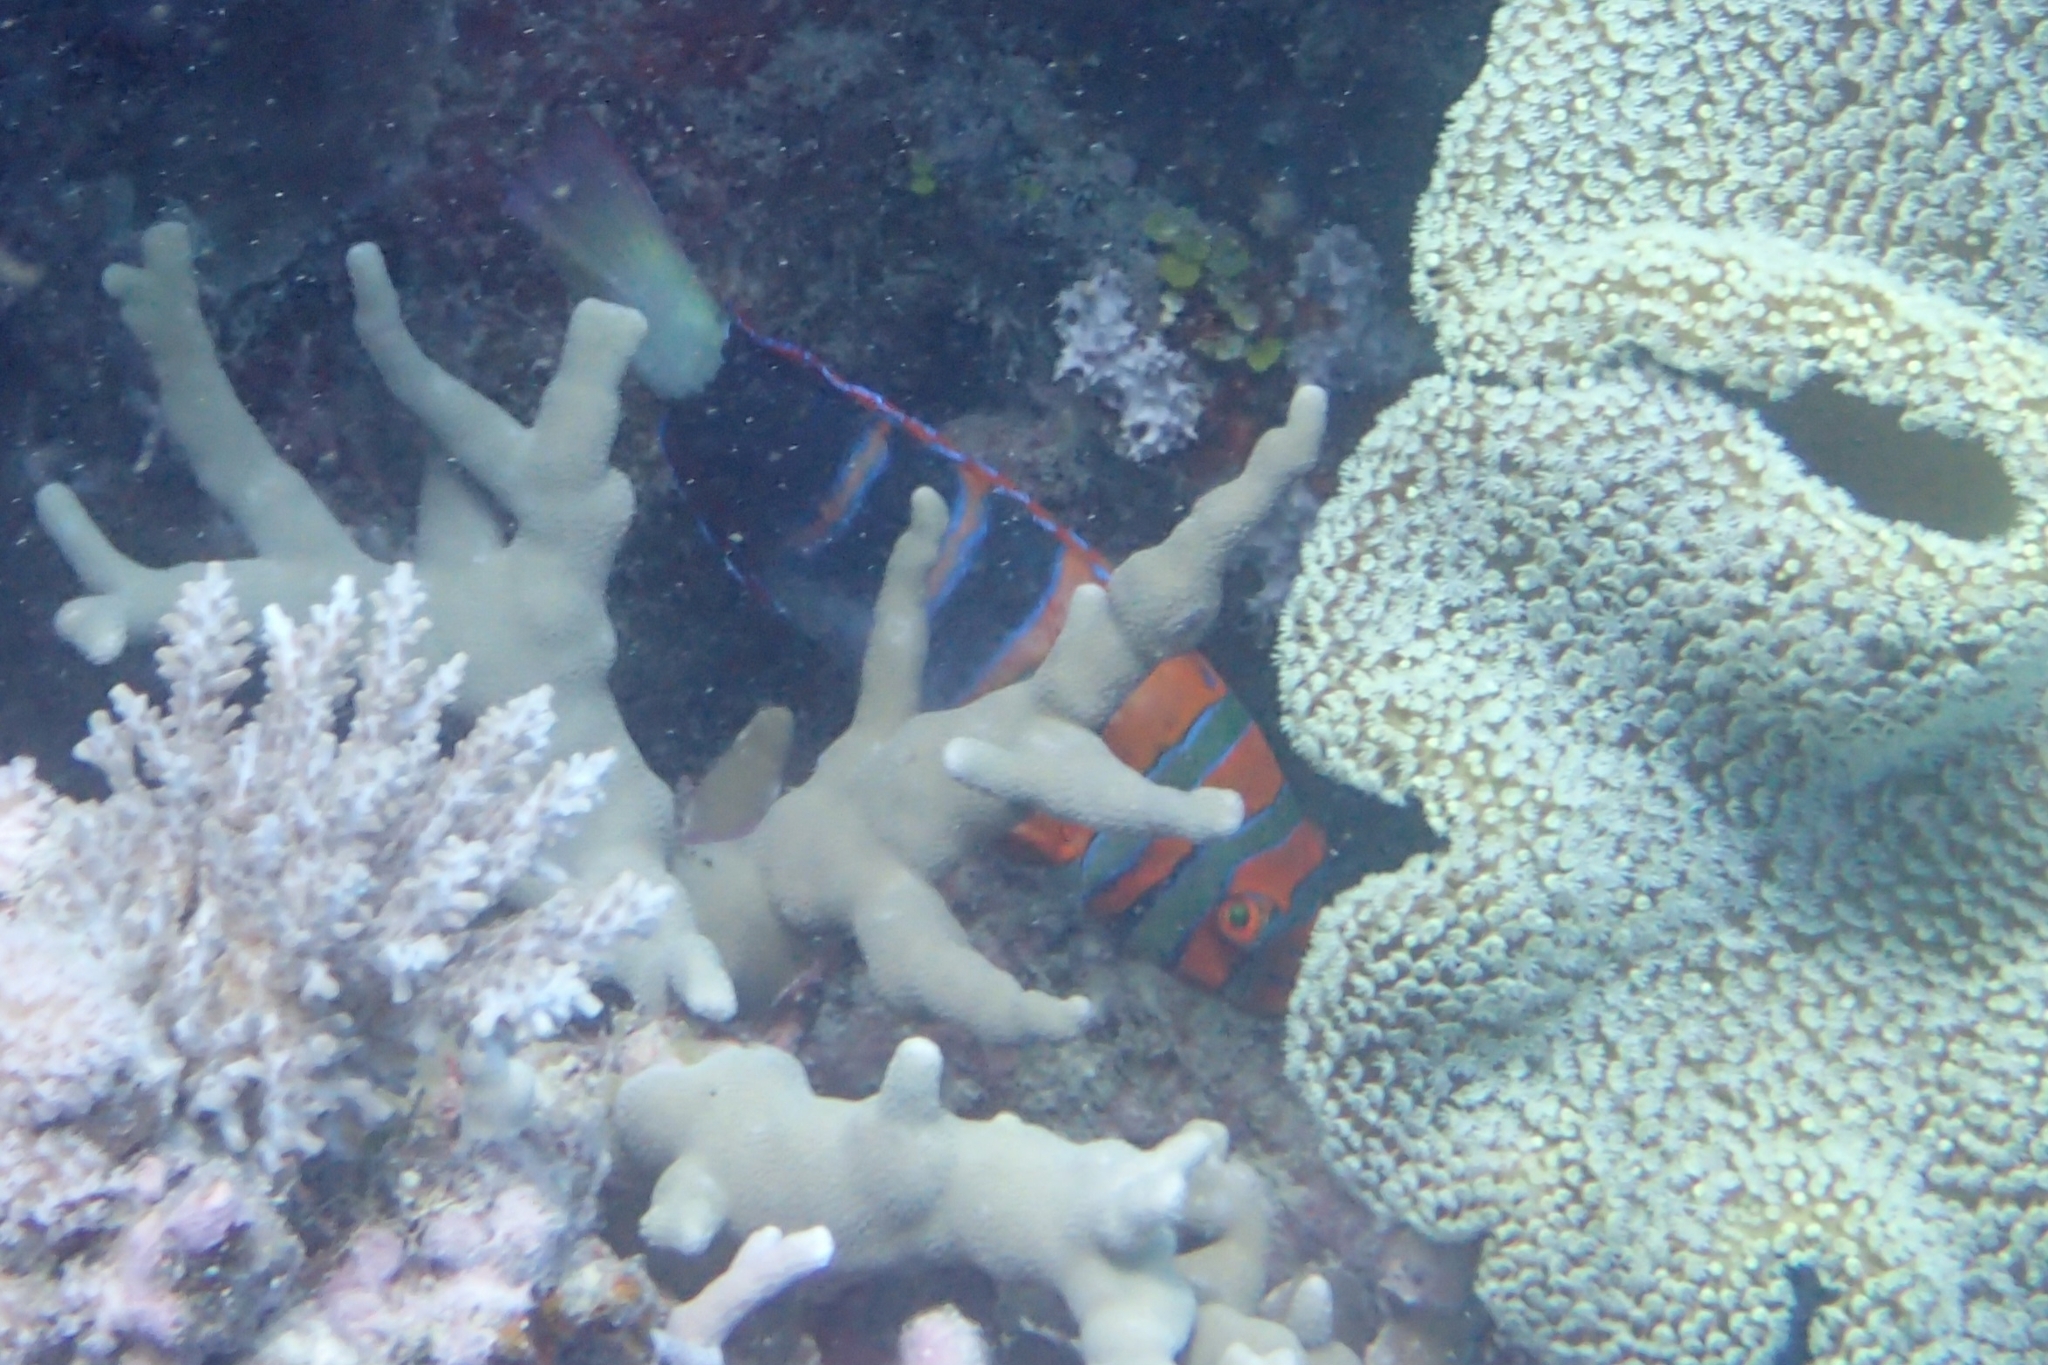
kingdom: Animalia
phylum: Chordata
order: Perciformes
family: Labridae
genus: Choerodon
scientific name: Choerodon fasciatus
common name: Harlequin tuskfish
